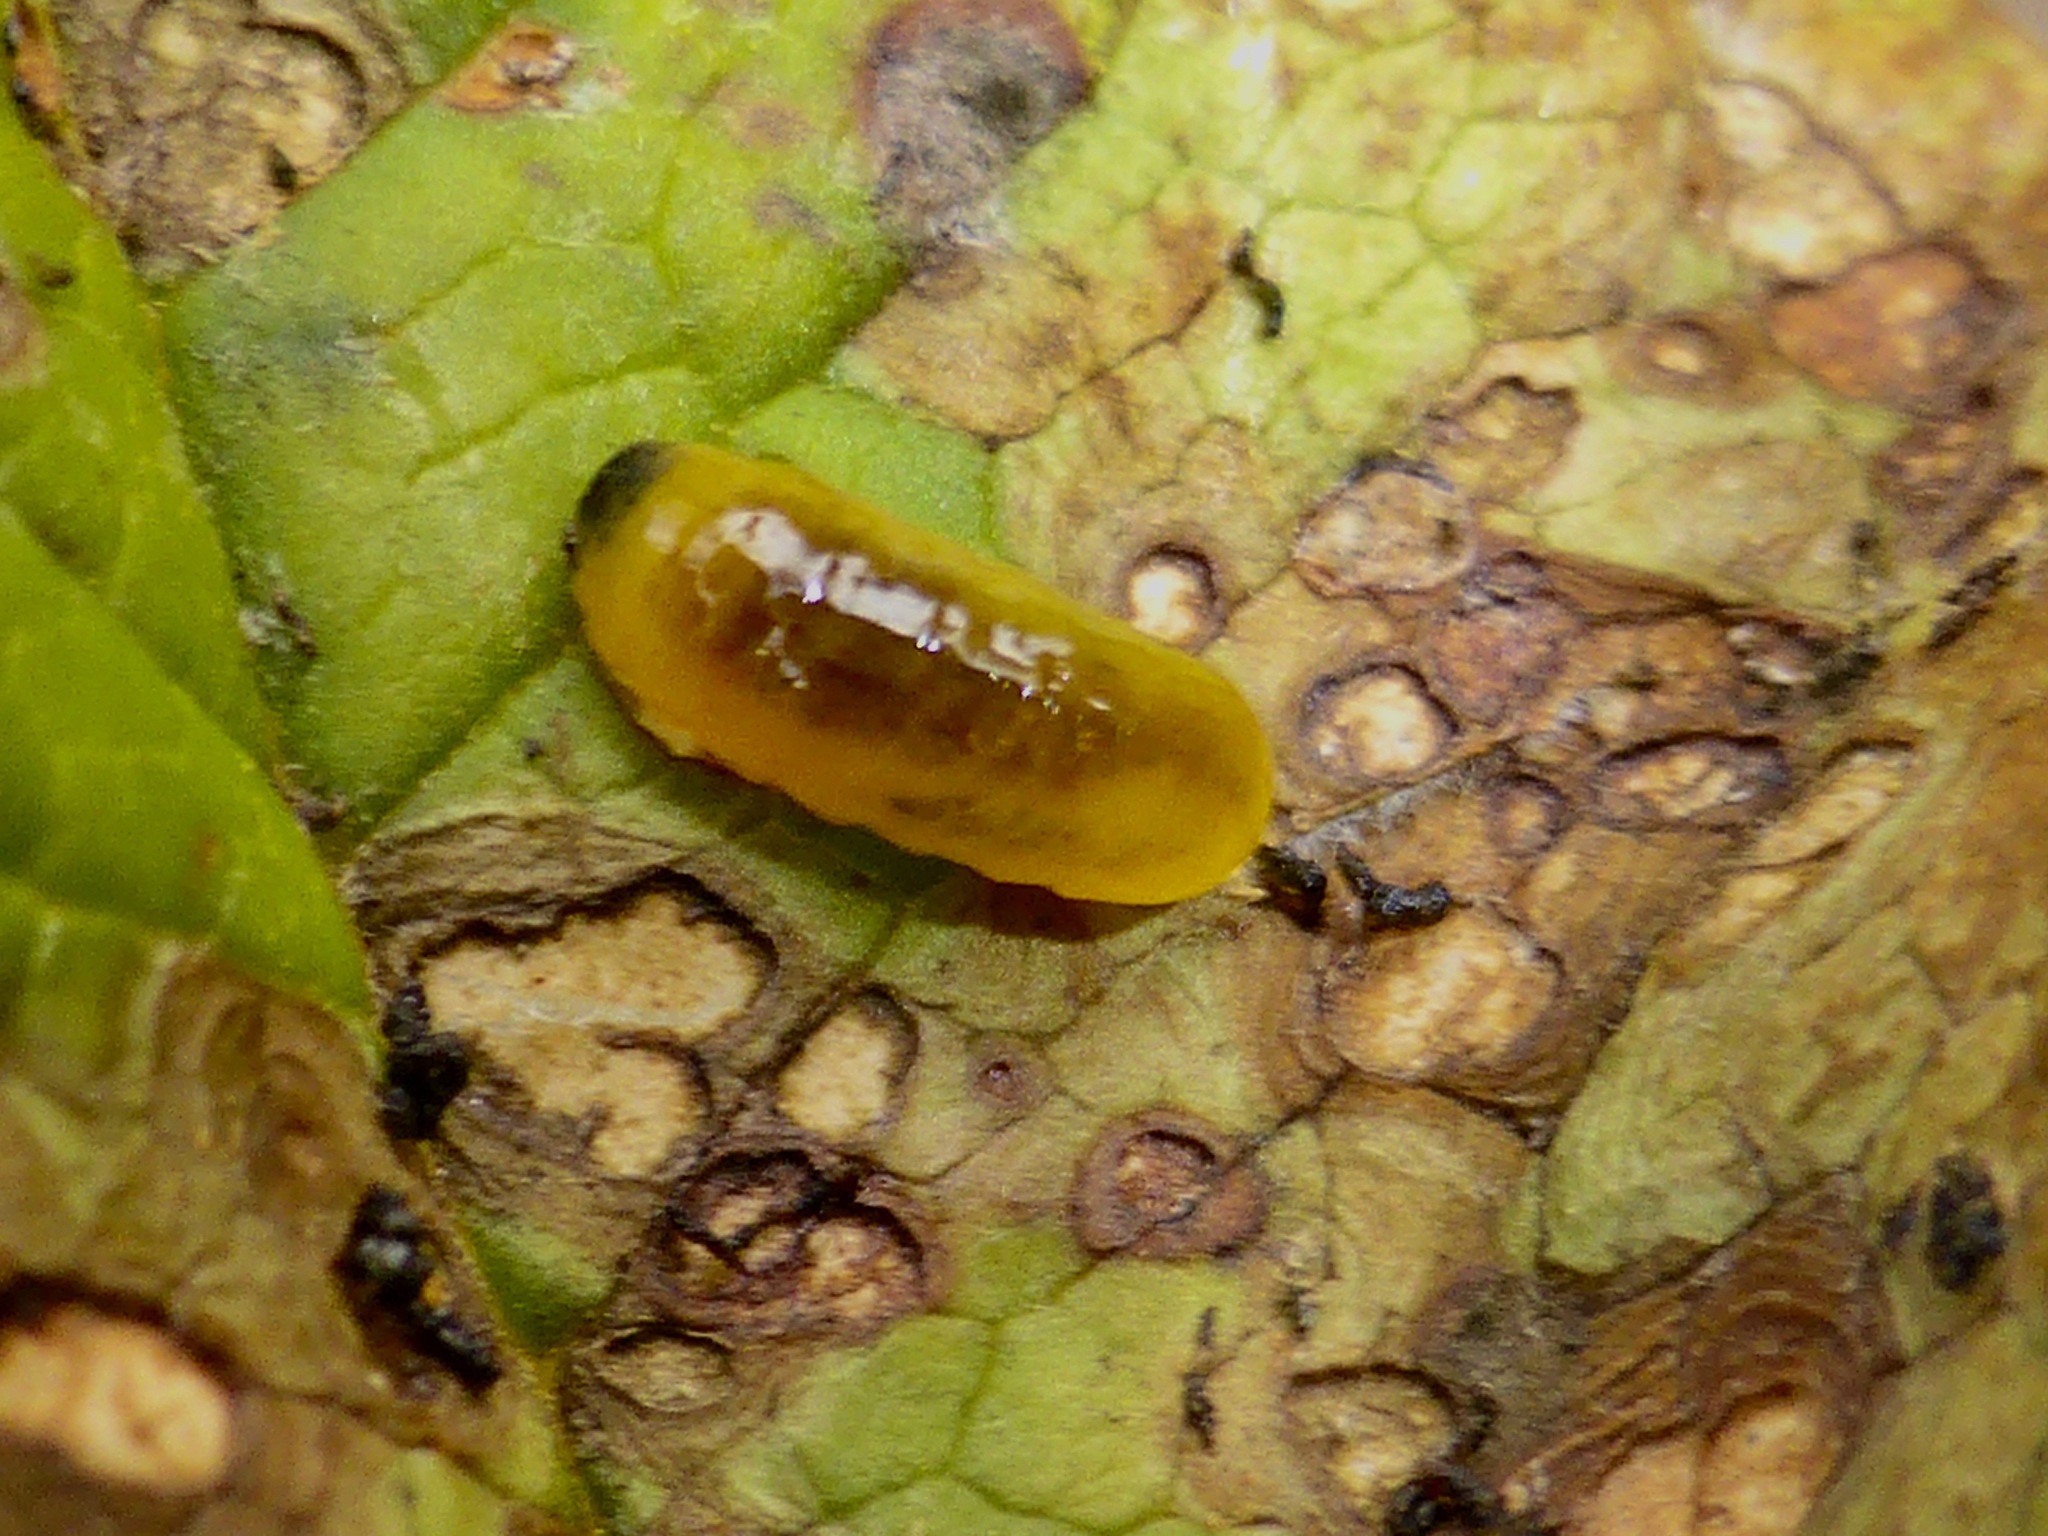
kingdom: Animalia
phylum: Arthropoda
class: Insecta
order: Coleoptera
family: Curculionidae
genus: Cleopus
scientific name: Cleopus japonicus
